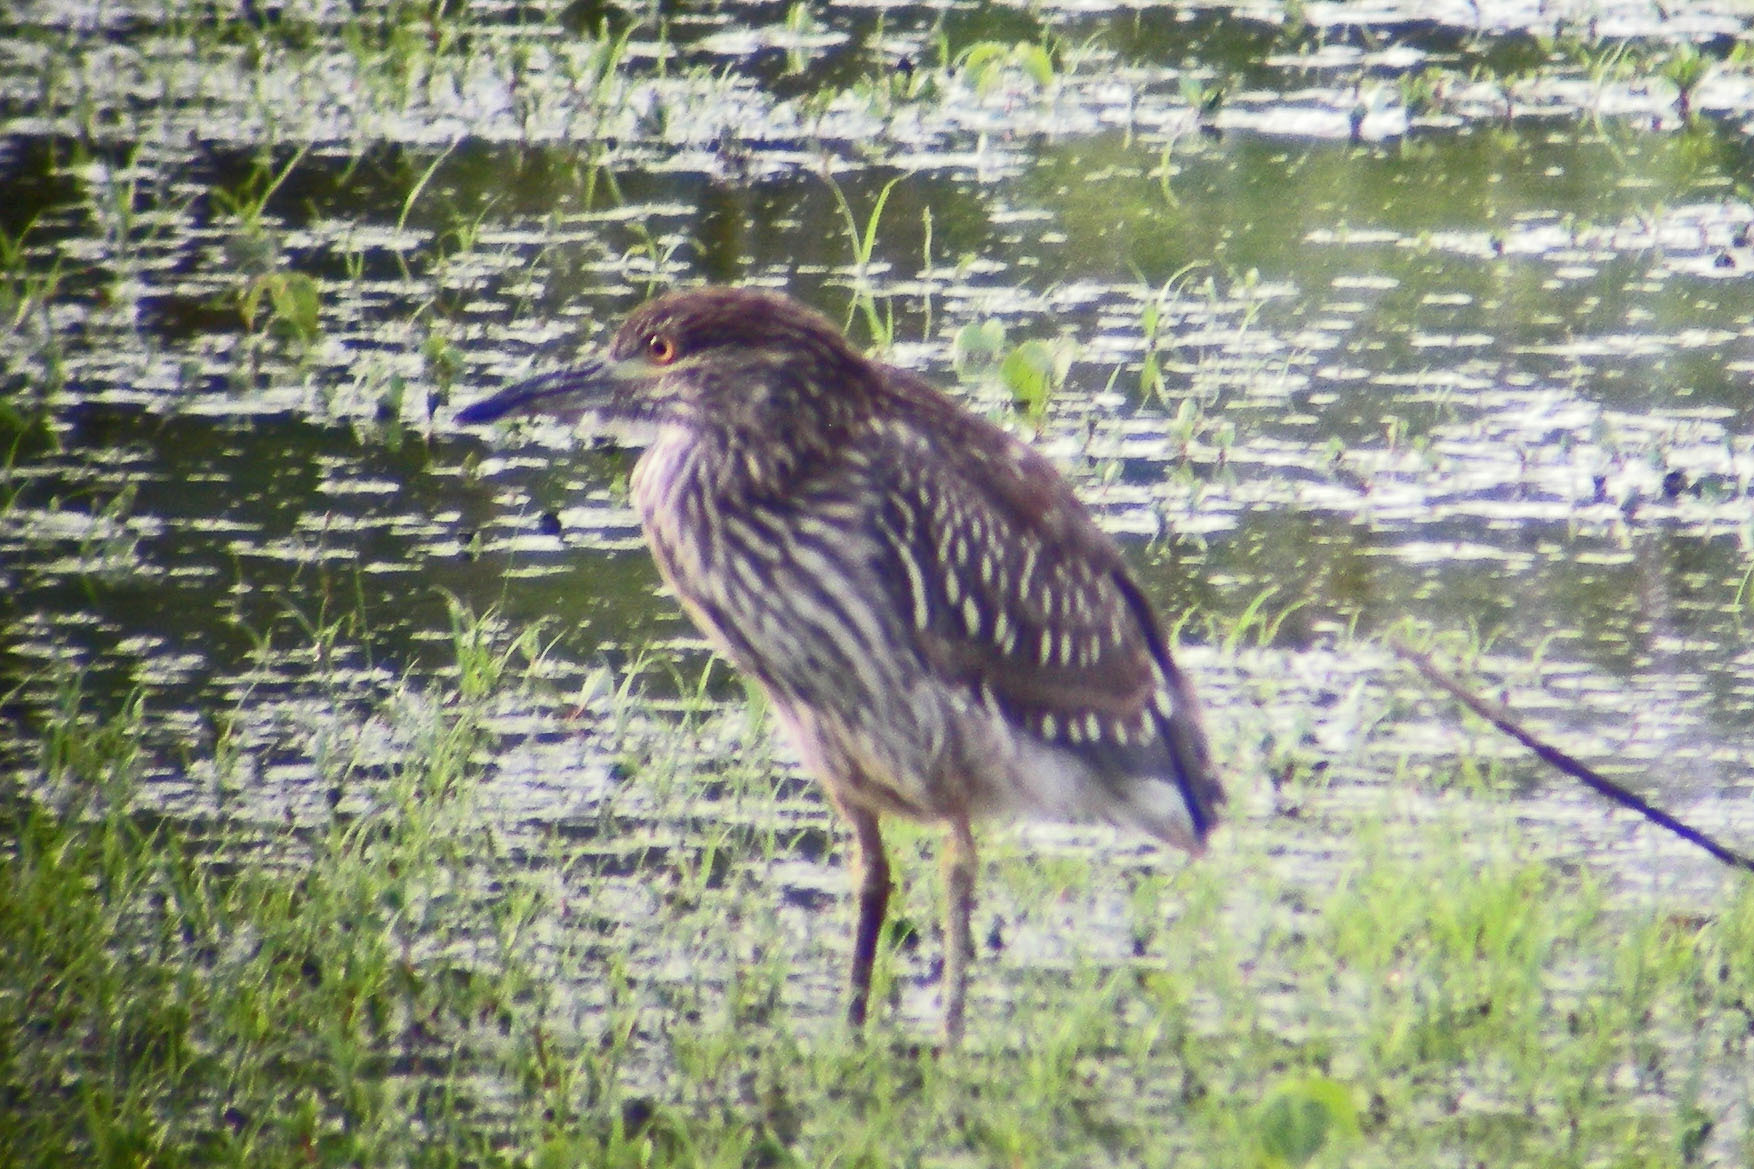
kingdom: Animalia
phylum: Chordata
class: Aves
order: Pelecaniformes
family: Ardeidae
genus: Nycticorax
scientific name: Nycticorax nycticorax
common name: Black-crowned night heron
